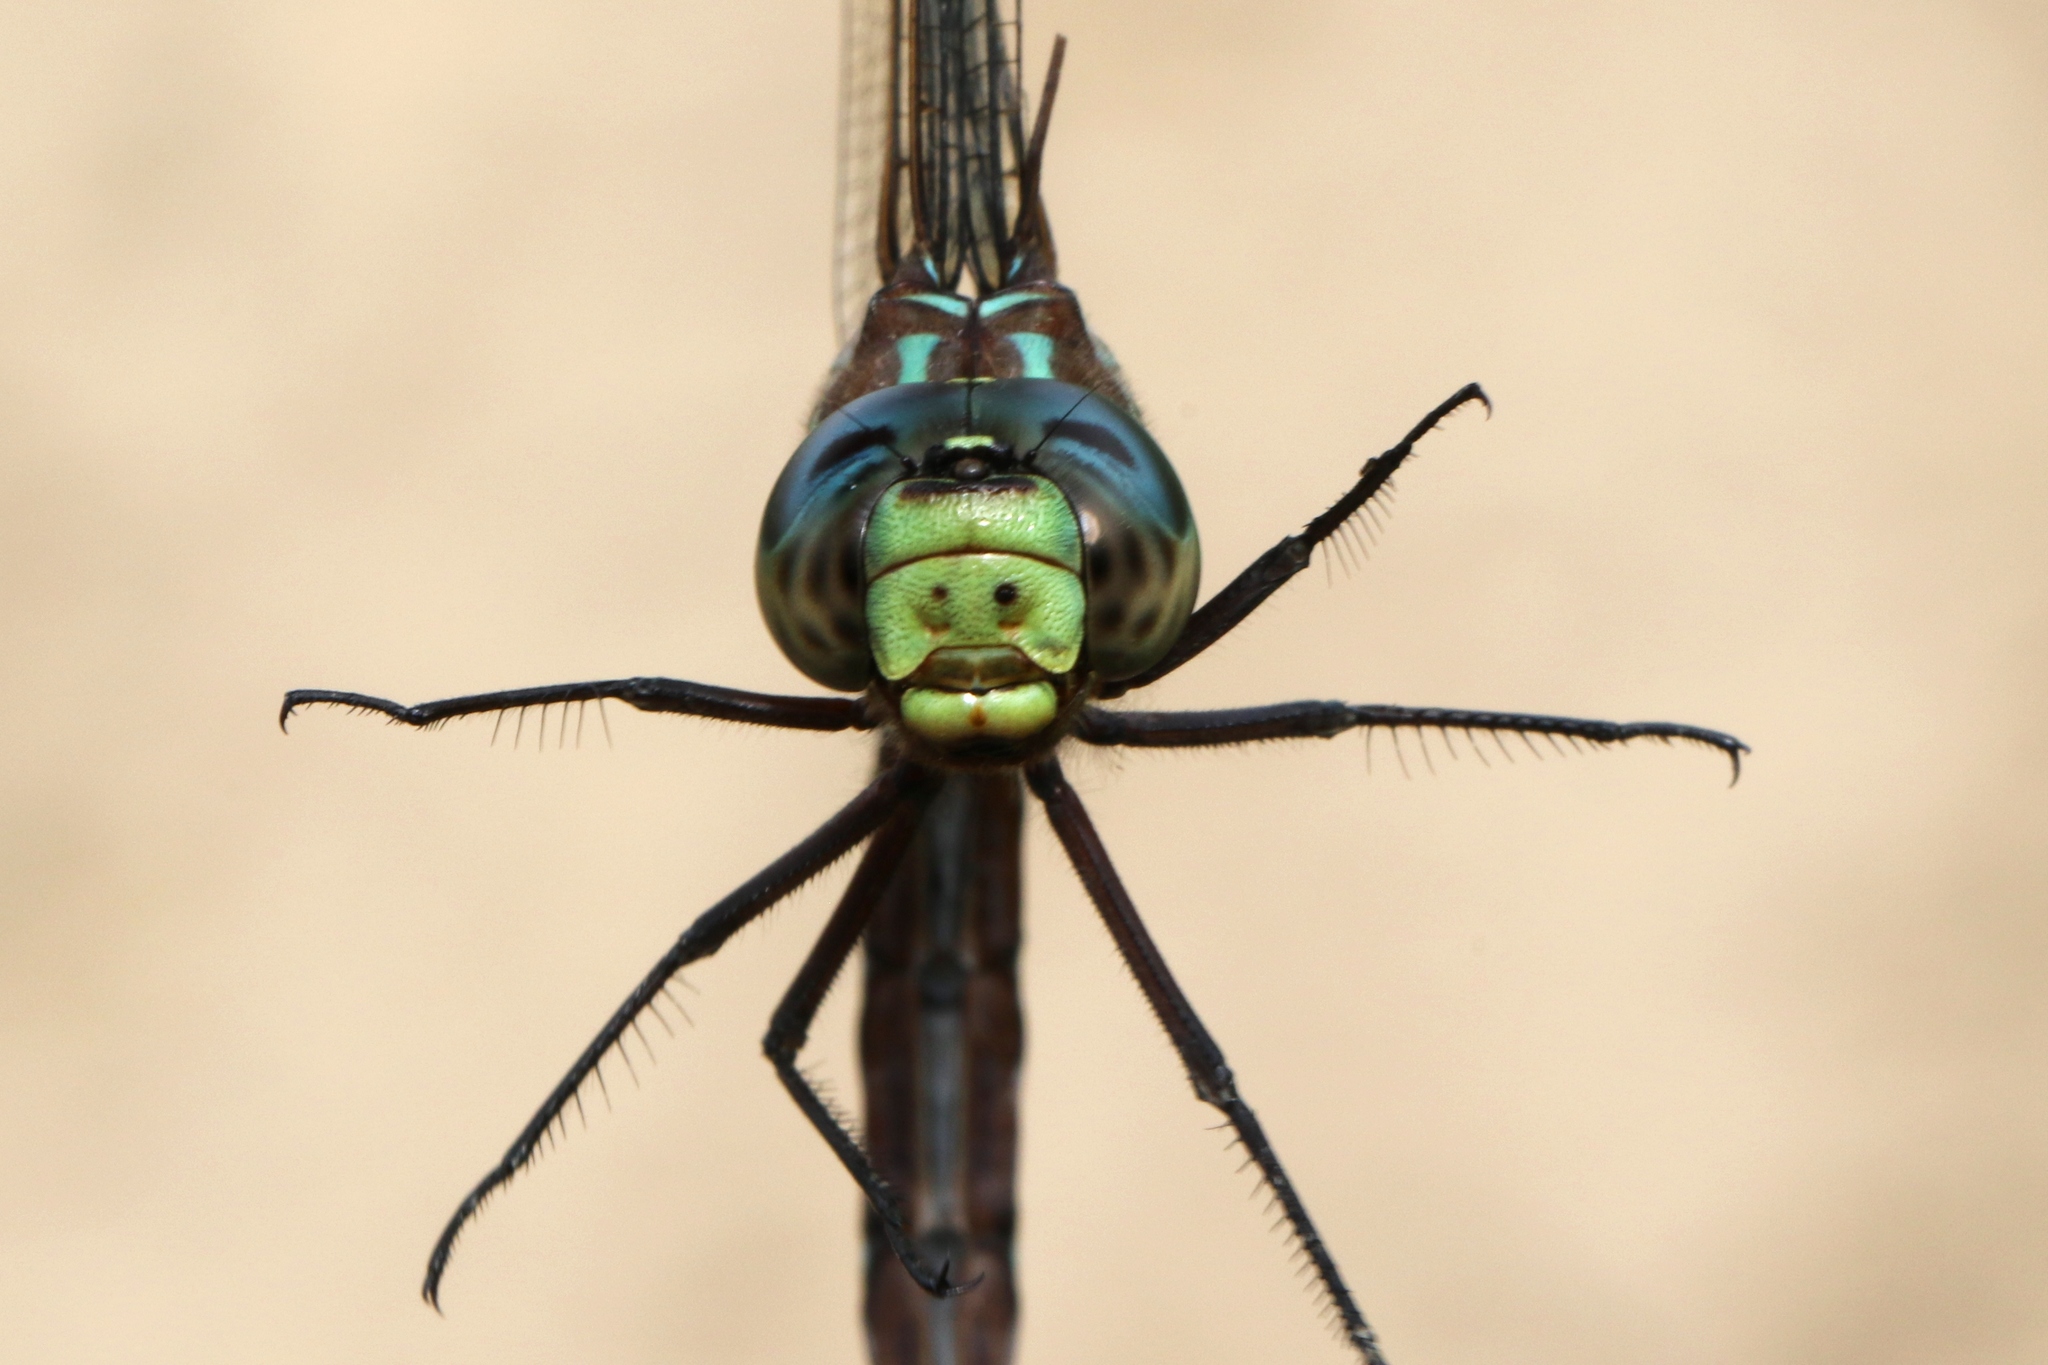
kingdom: Animalia
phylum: Arthropoda
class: Insecta
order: Odonata
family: Aeshnidae
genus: Aeshna
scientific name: Aeshna tuberculifera
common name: Aeschne à tubercules
